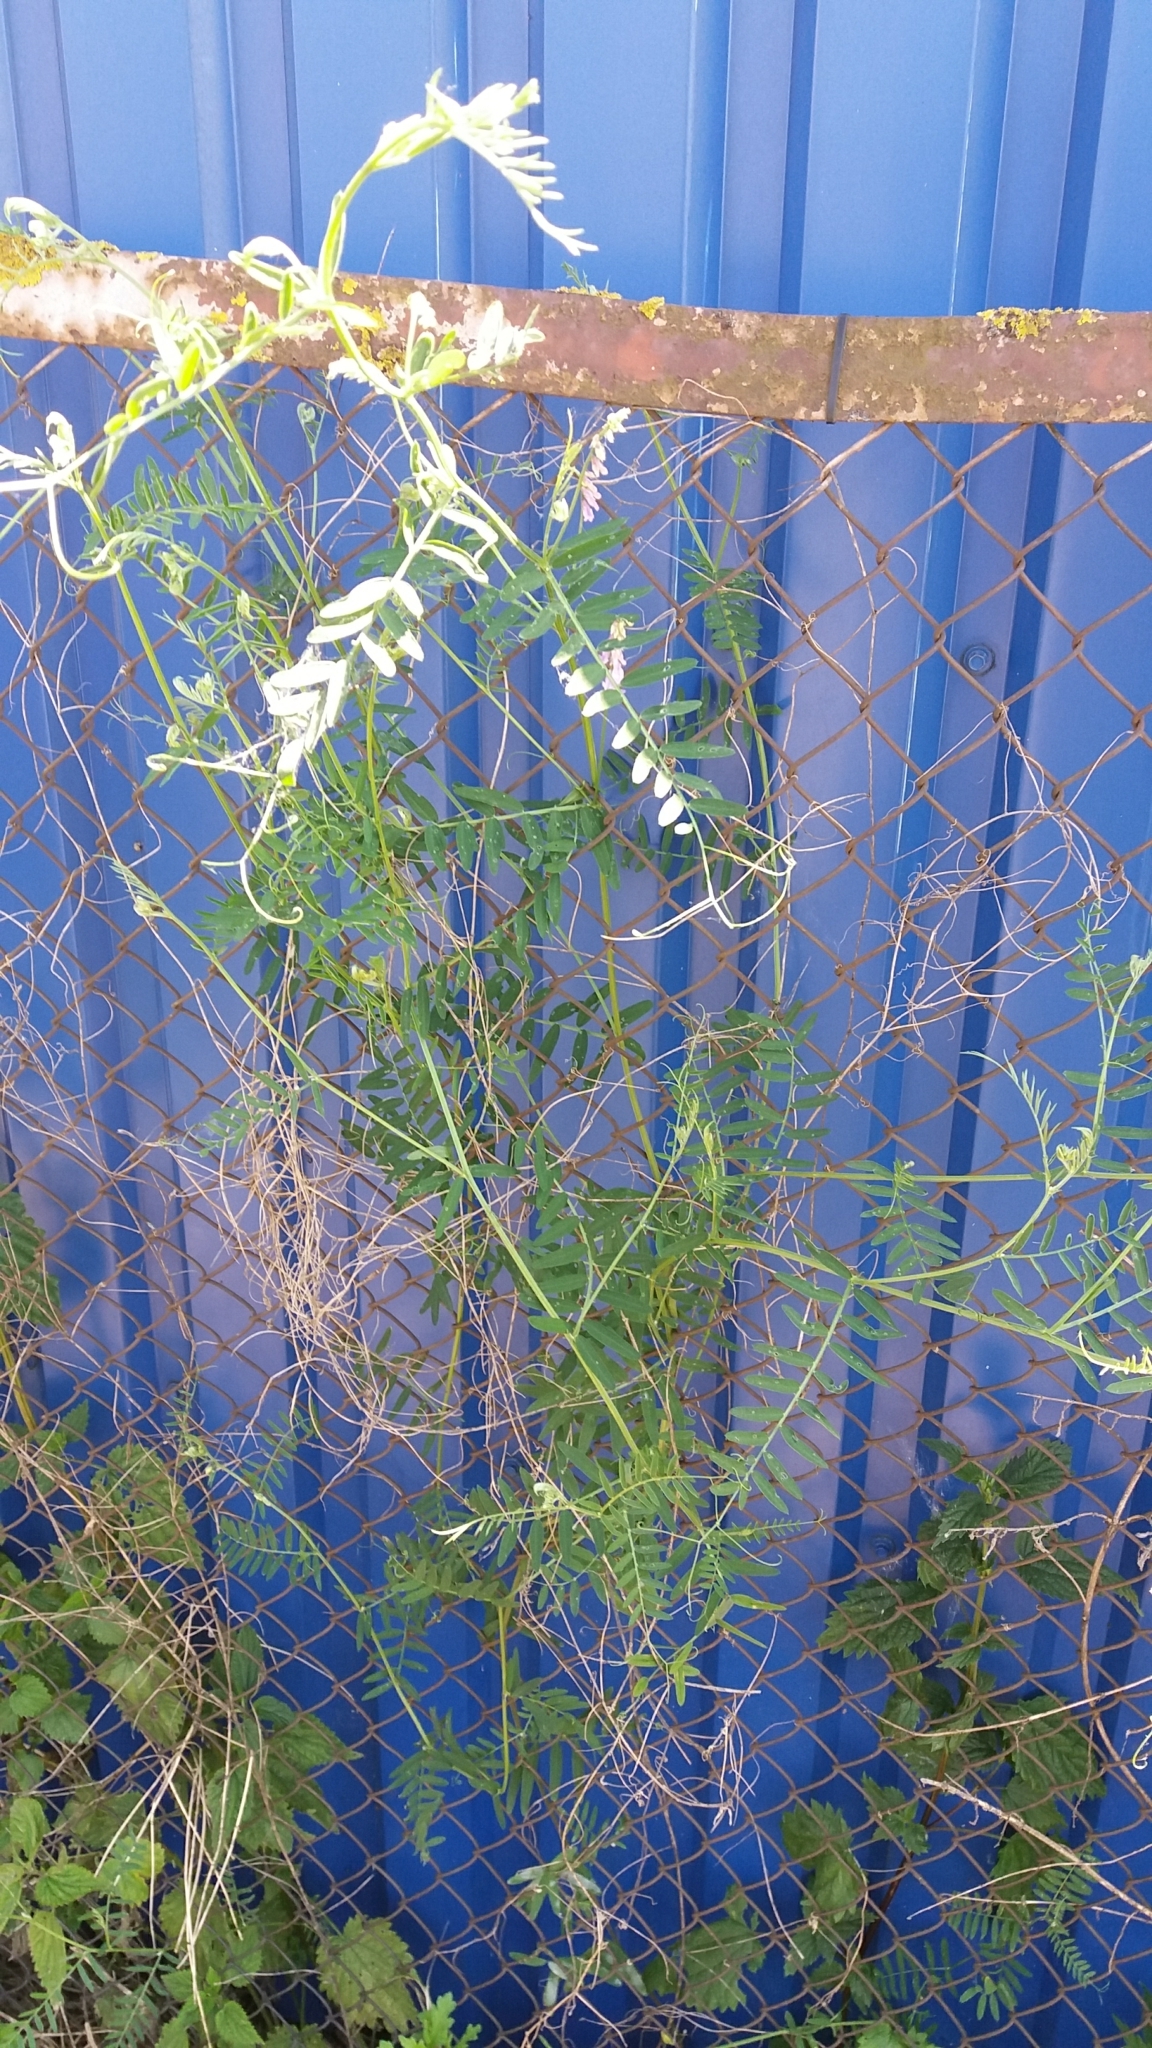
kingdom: Plantae
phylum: Tracheophyta
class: Magnoliopsida
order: Fabales
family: Fabaceae
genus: Vicia
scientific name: Vicia cracca
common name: Bird vetch
